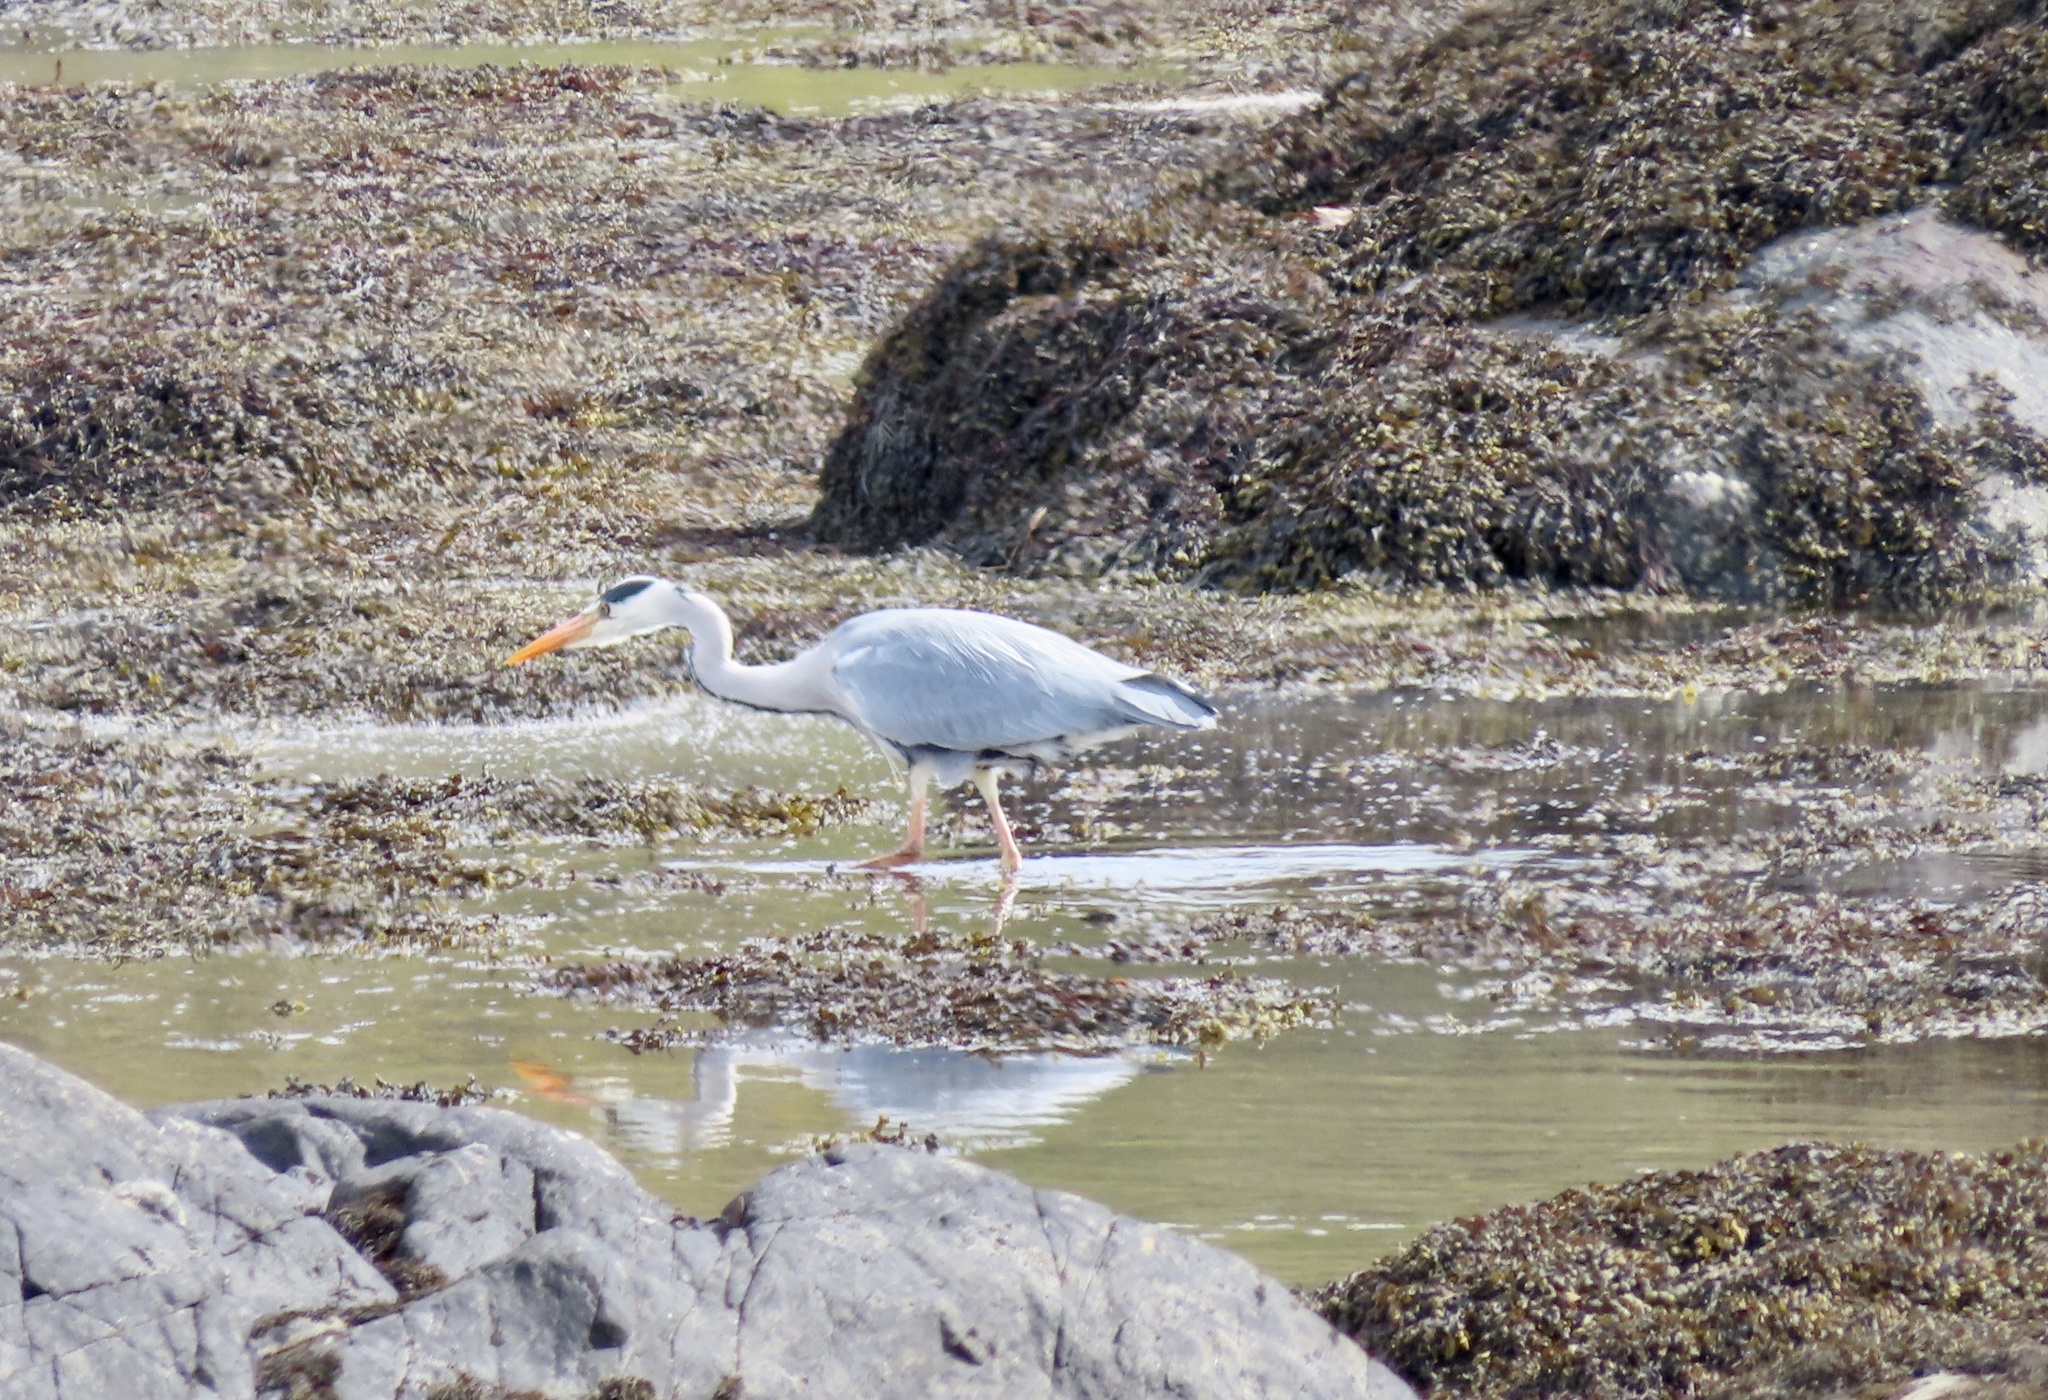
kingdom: Animalia
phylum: Chordata
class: Aves
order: Pelecaniformes
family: Ardeidae
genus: Ardea
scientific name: Ardea cinerea
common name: Grey heron
